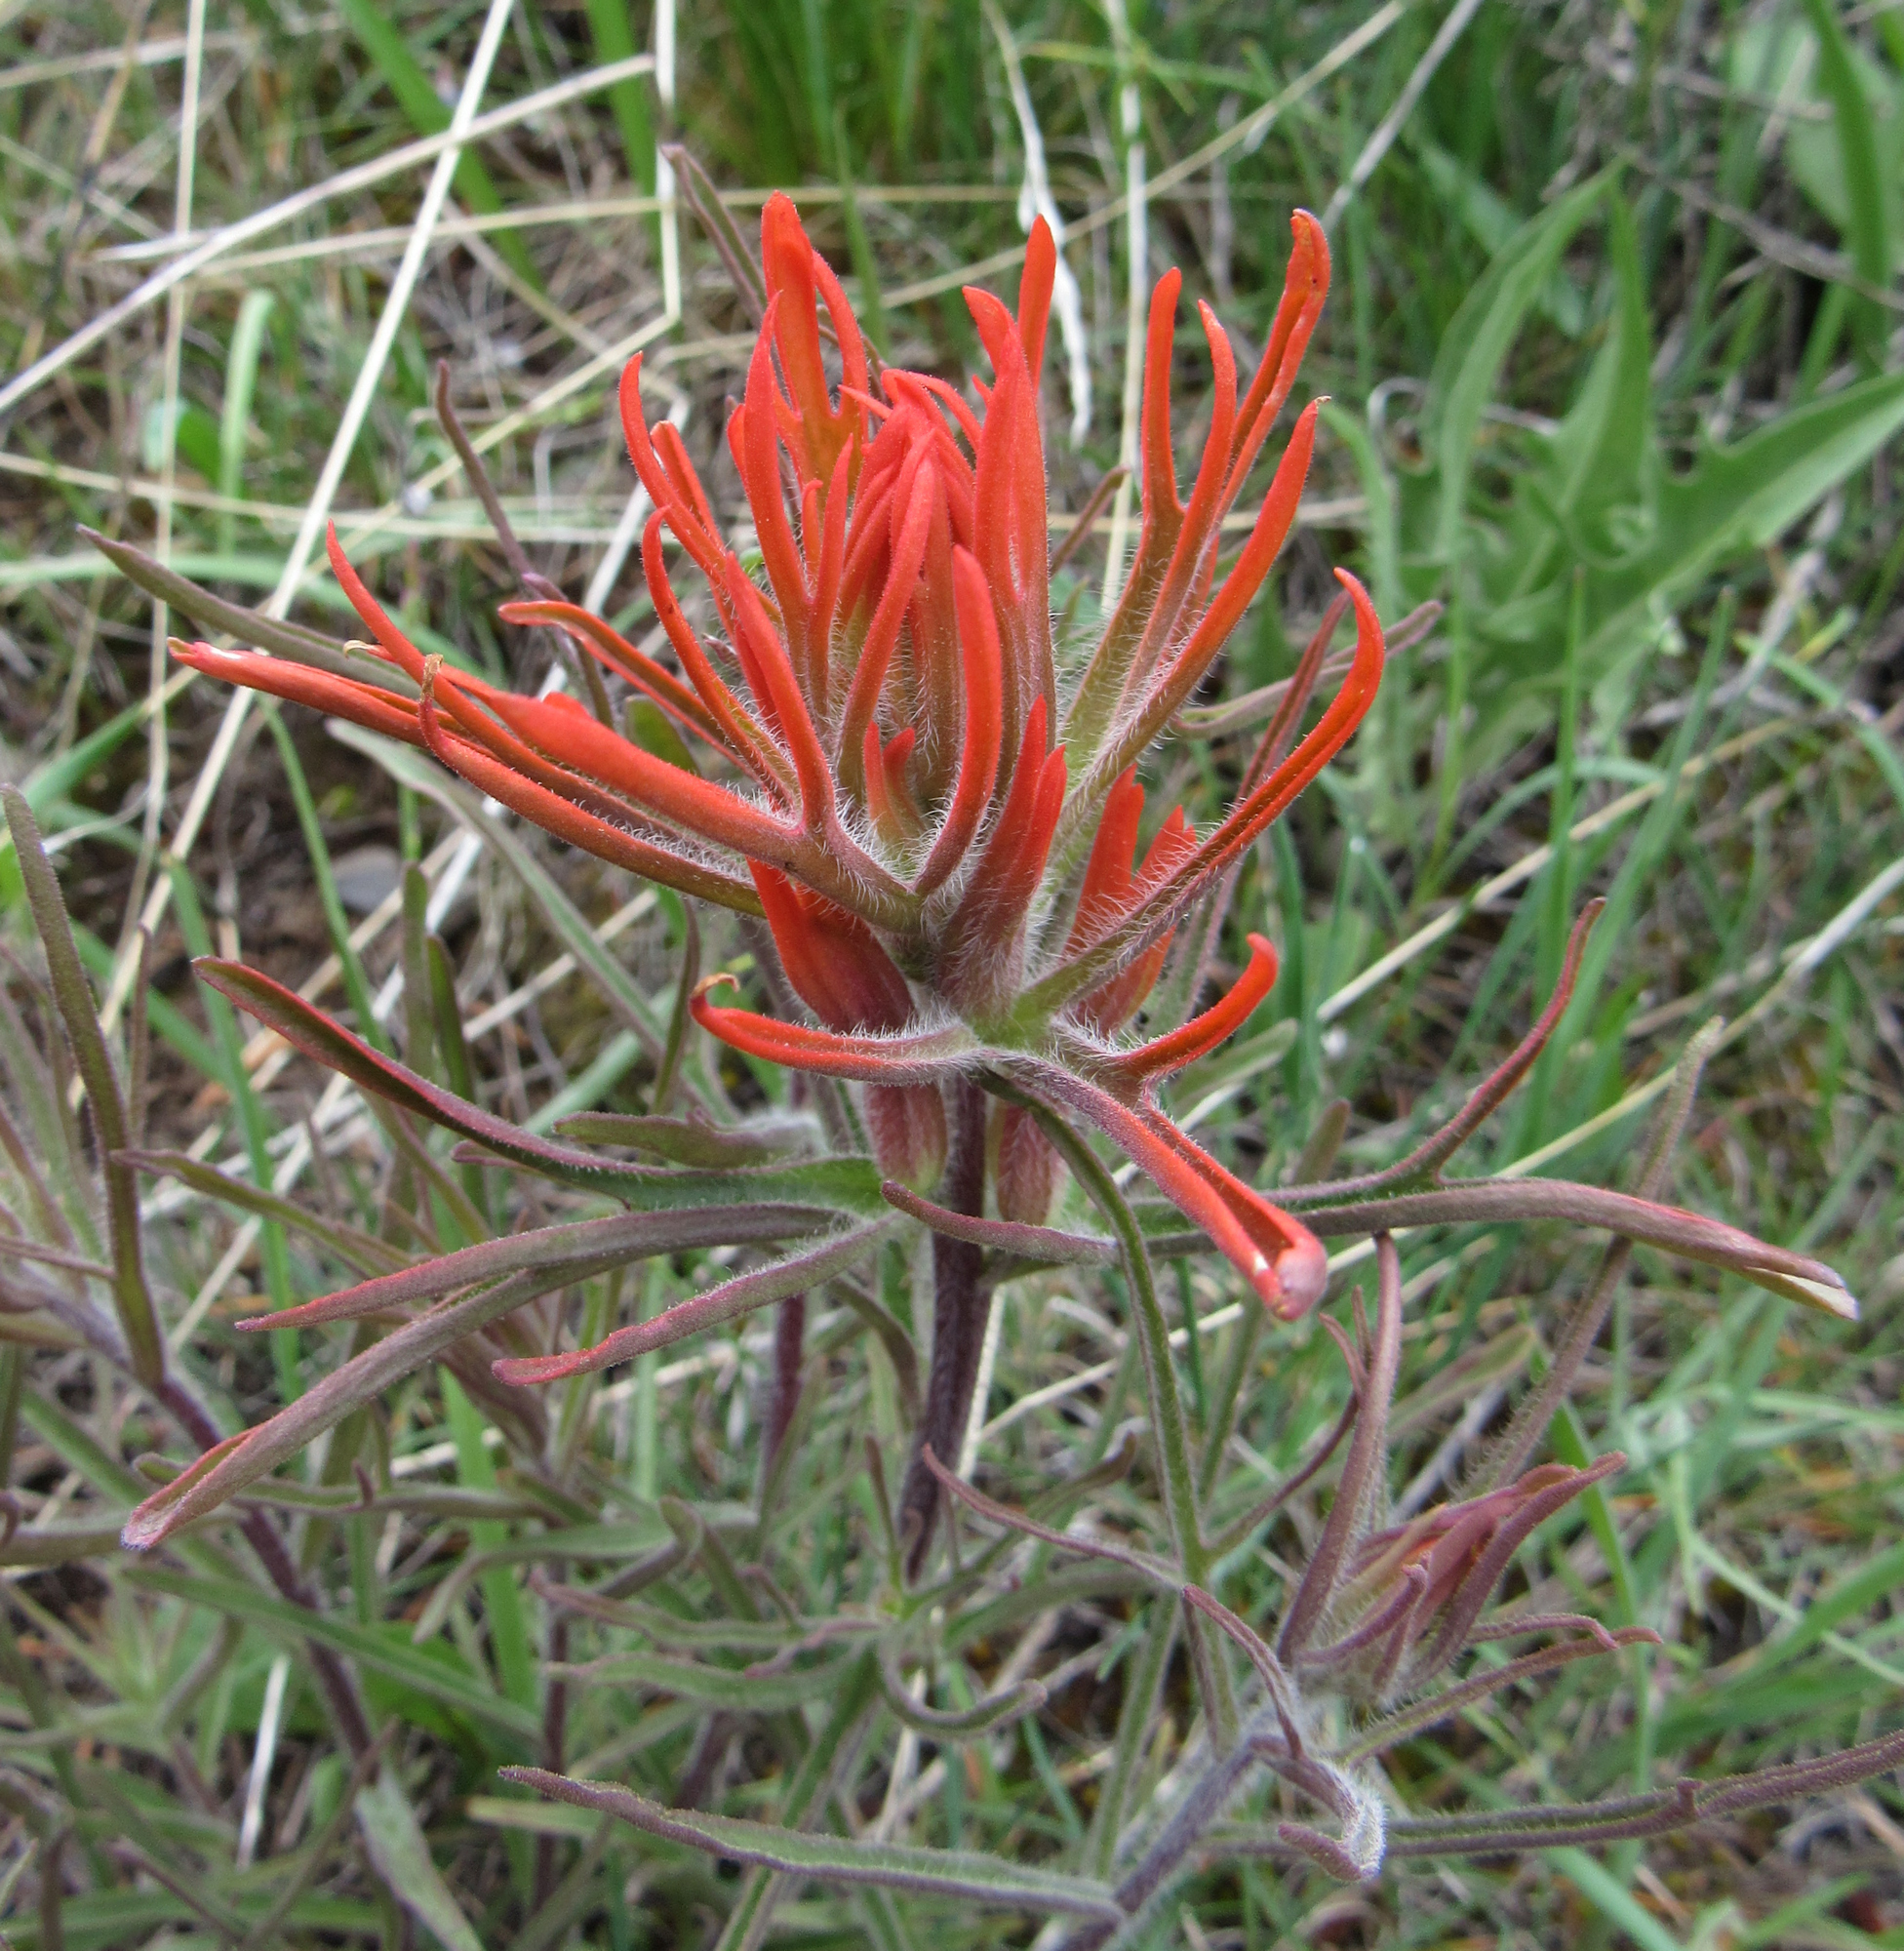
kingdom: Plantae
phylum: Tracheophyta
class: Magnoliopsida
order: Lamiales
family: Orobanchaceae
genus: Castilleja
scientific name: Castilleja covilleana
